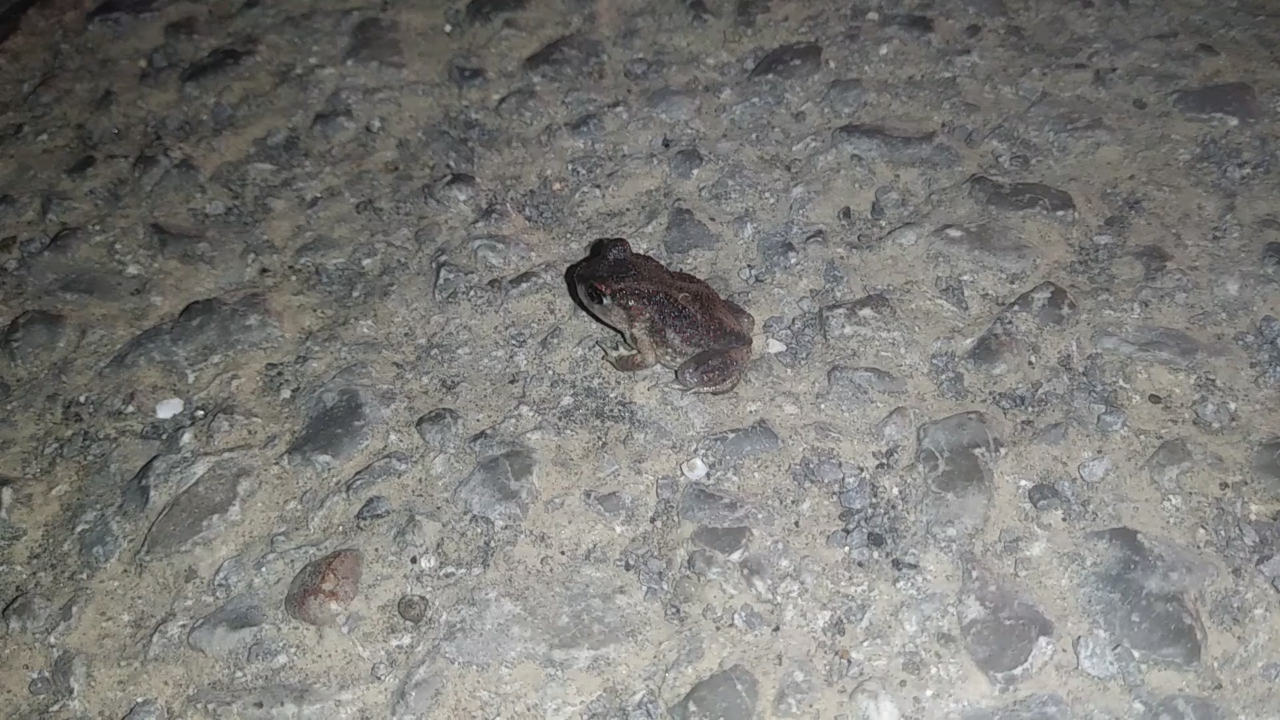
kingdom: Animalia
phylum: Chordata
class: Amphibia
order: Anura
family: Scaphiopodidae
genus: Scaphiopus
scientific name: Scaphiopus holbrookii
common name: Eastern spadefoot toad
